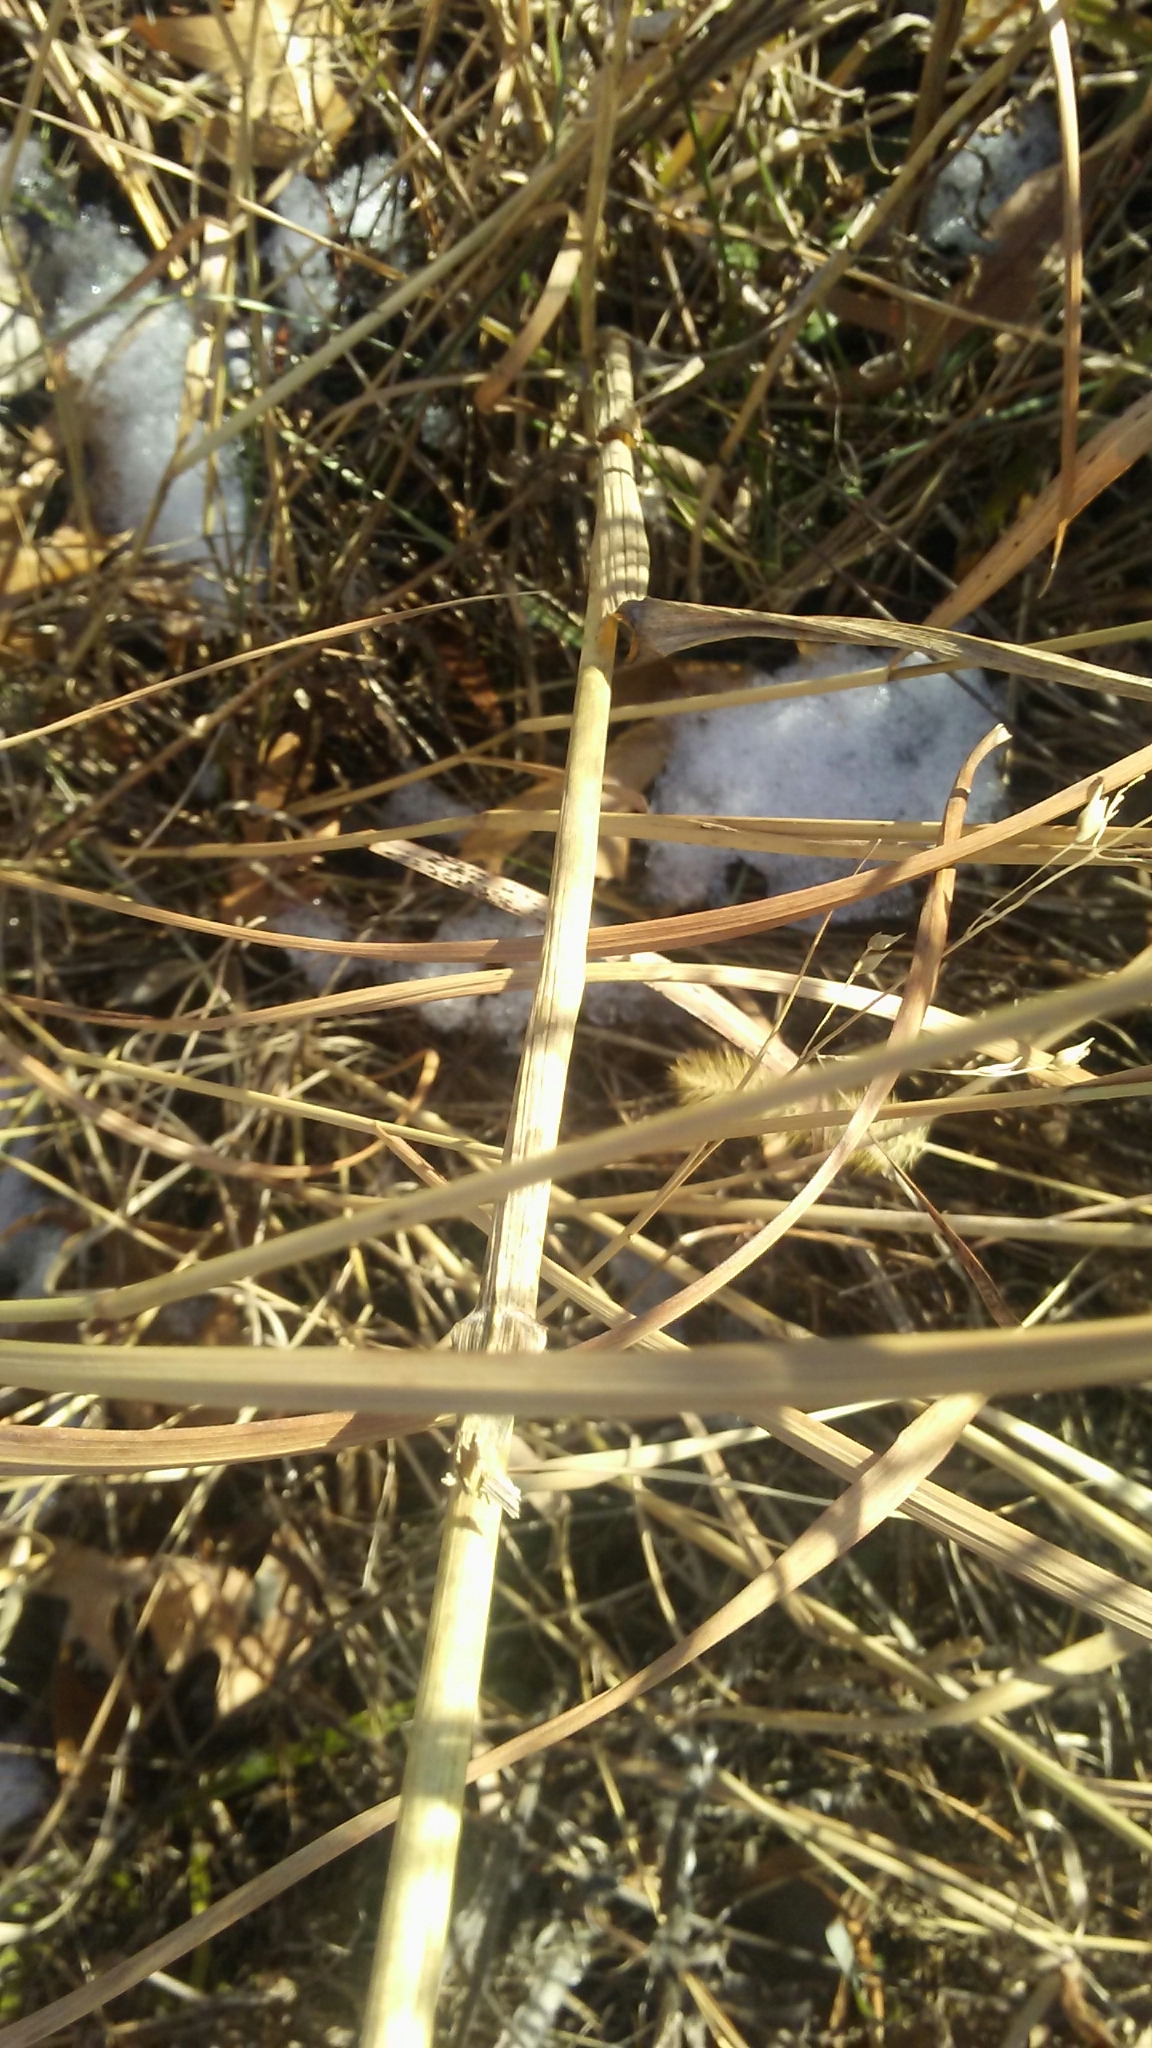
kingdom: Plantae
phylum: Tracheophyta
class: Liliopsida
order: Poales
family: Poaceae
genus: Elymus
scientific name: Elymus canadensis
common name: Canada wild rye
